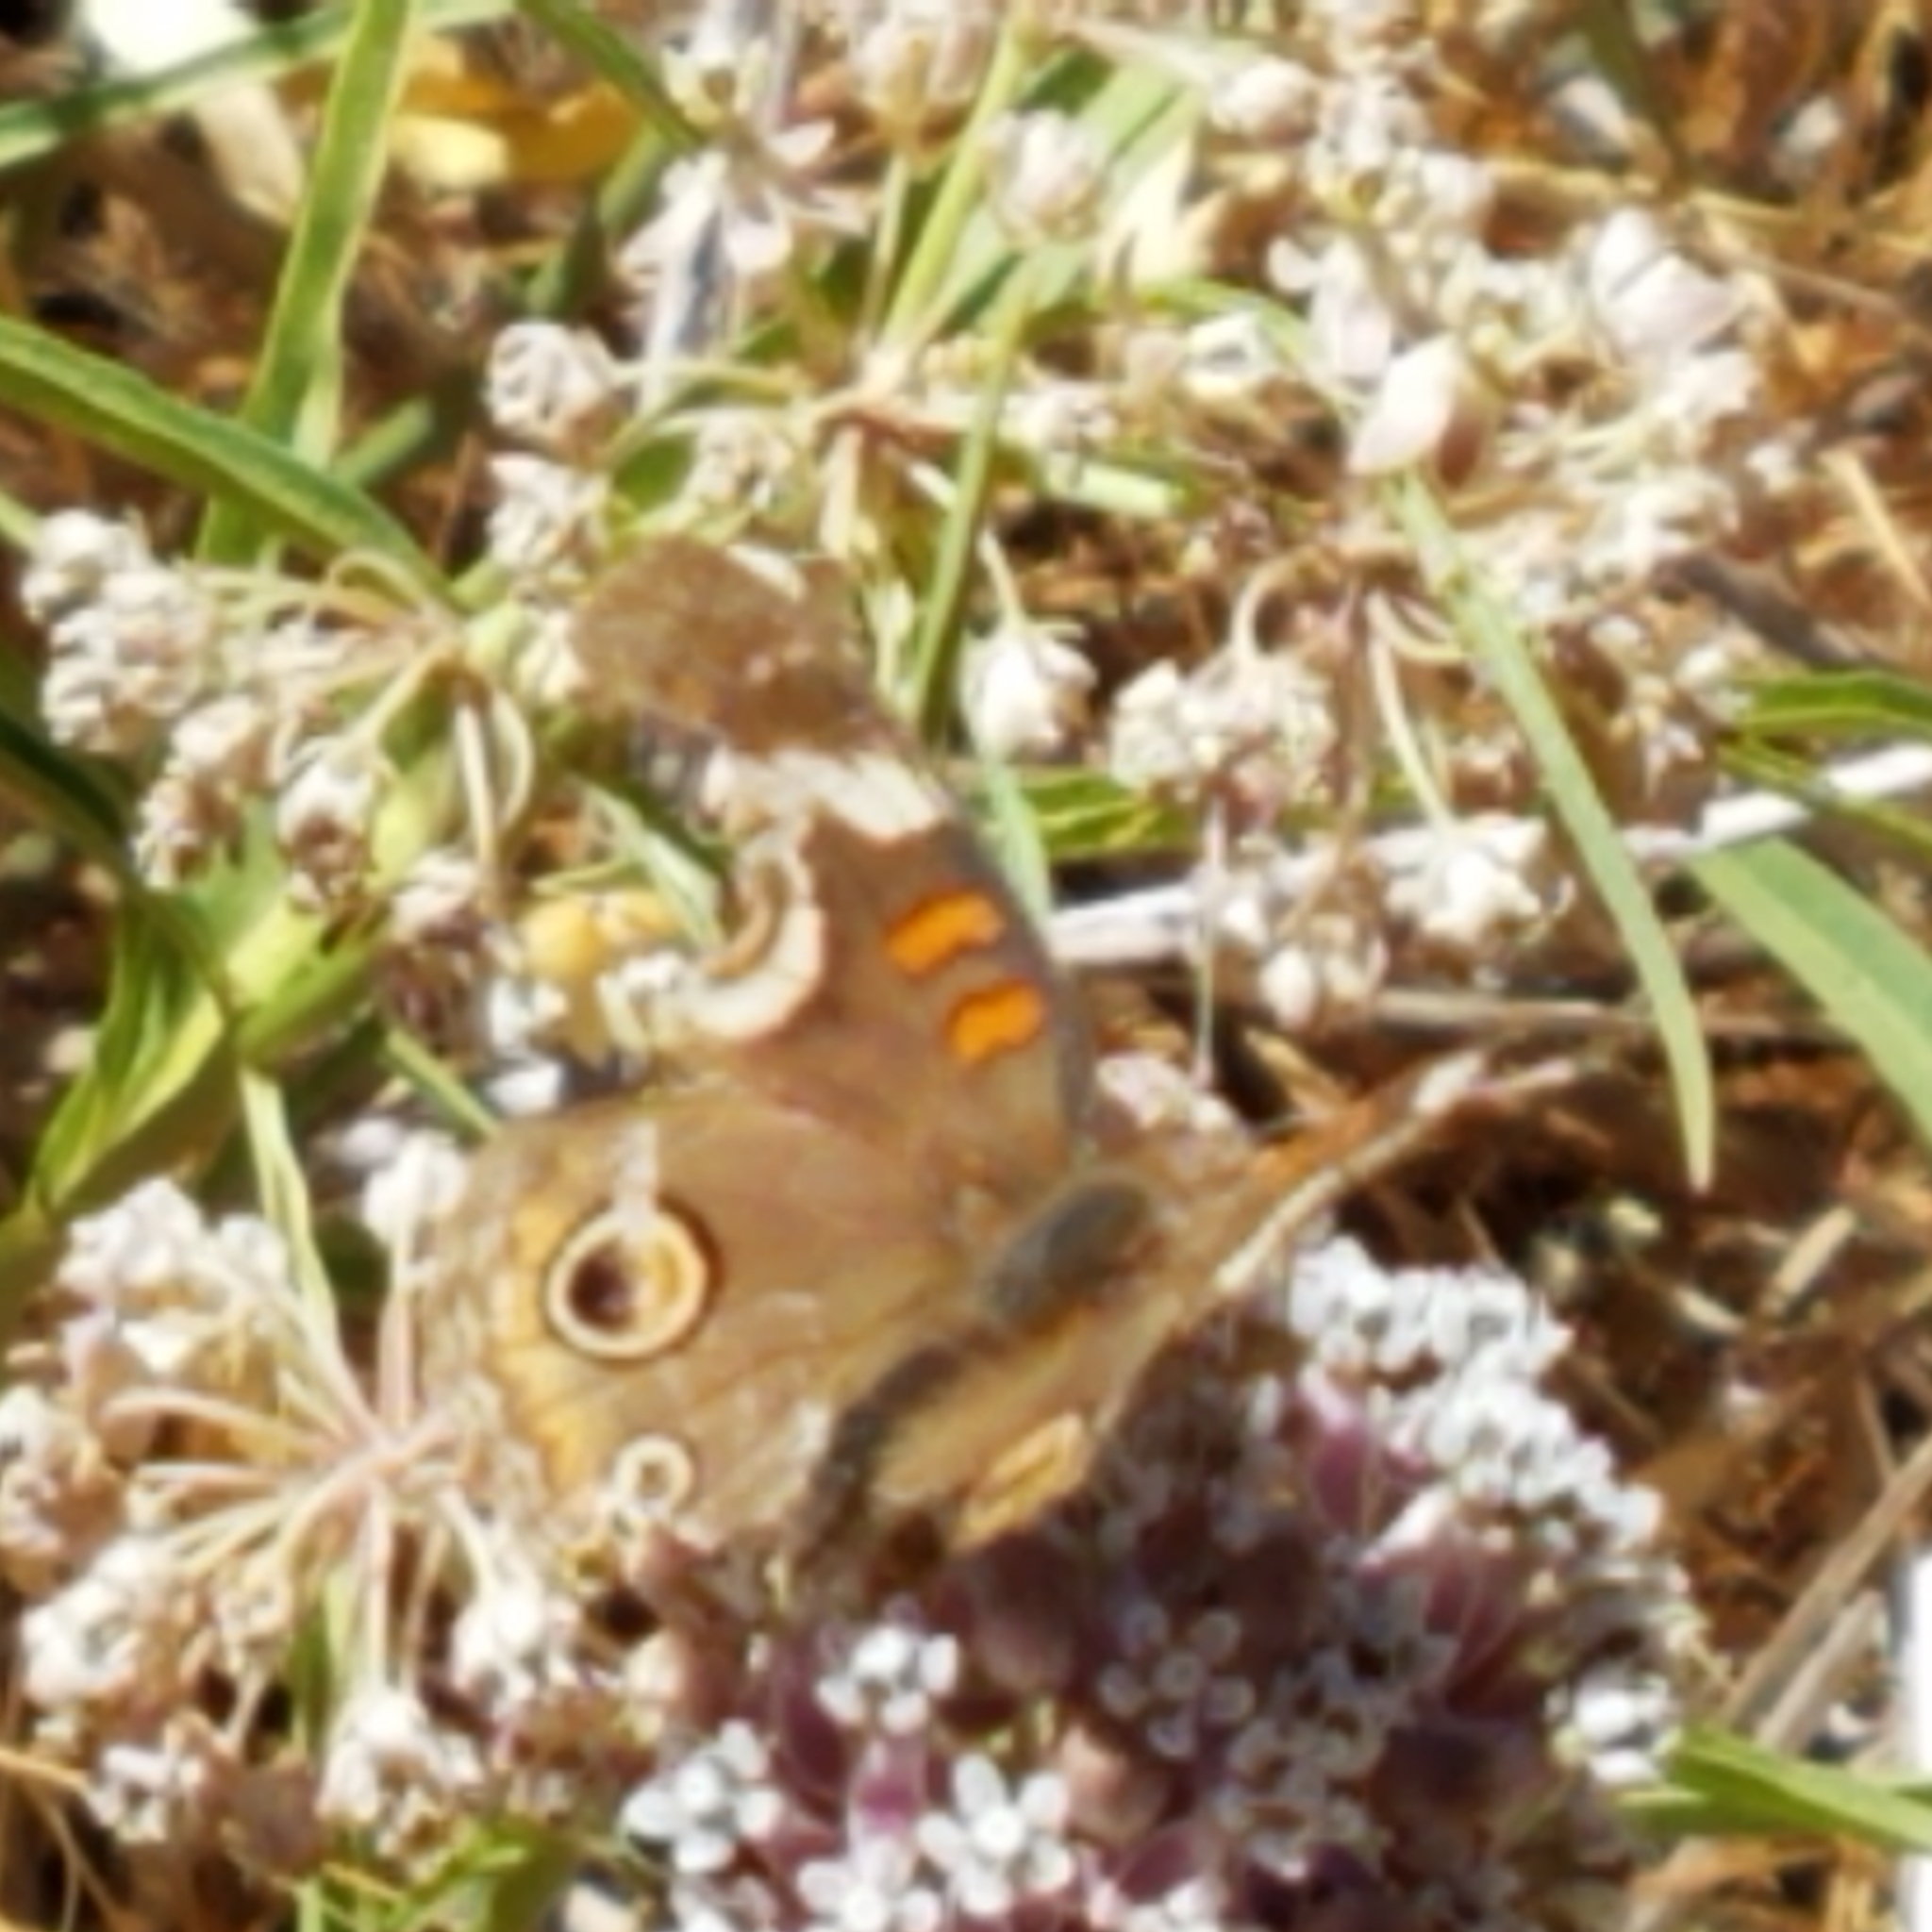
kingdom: Animalia
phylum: Arthropoda
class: Insecta
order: Lepidoptera
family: Nymphalidae
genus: Junonia
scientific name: Junonia grisea
